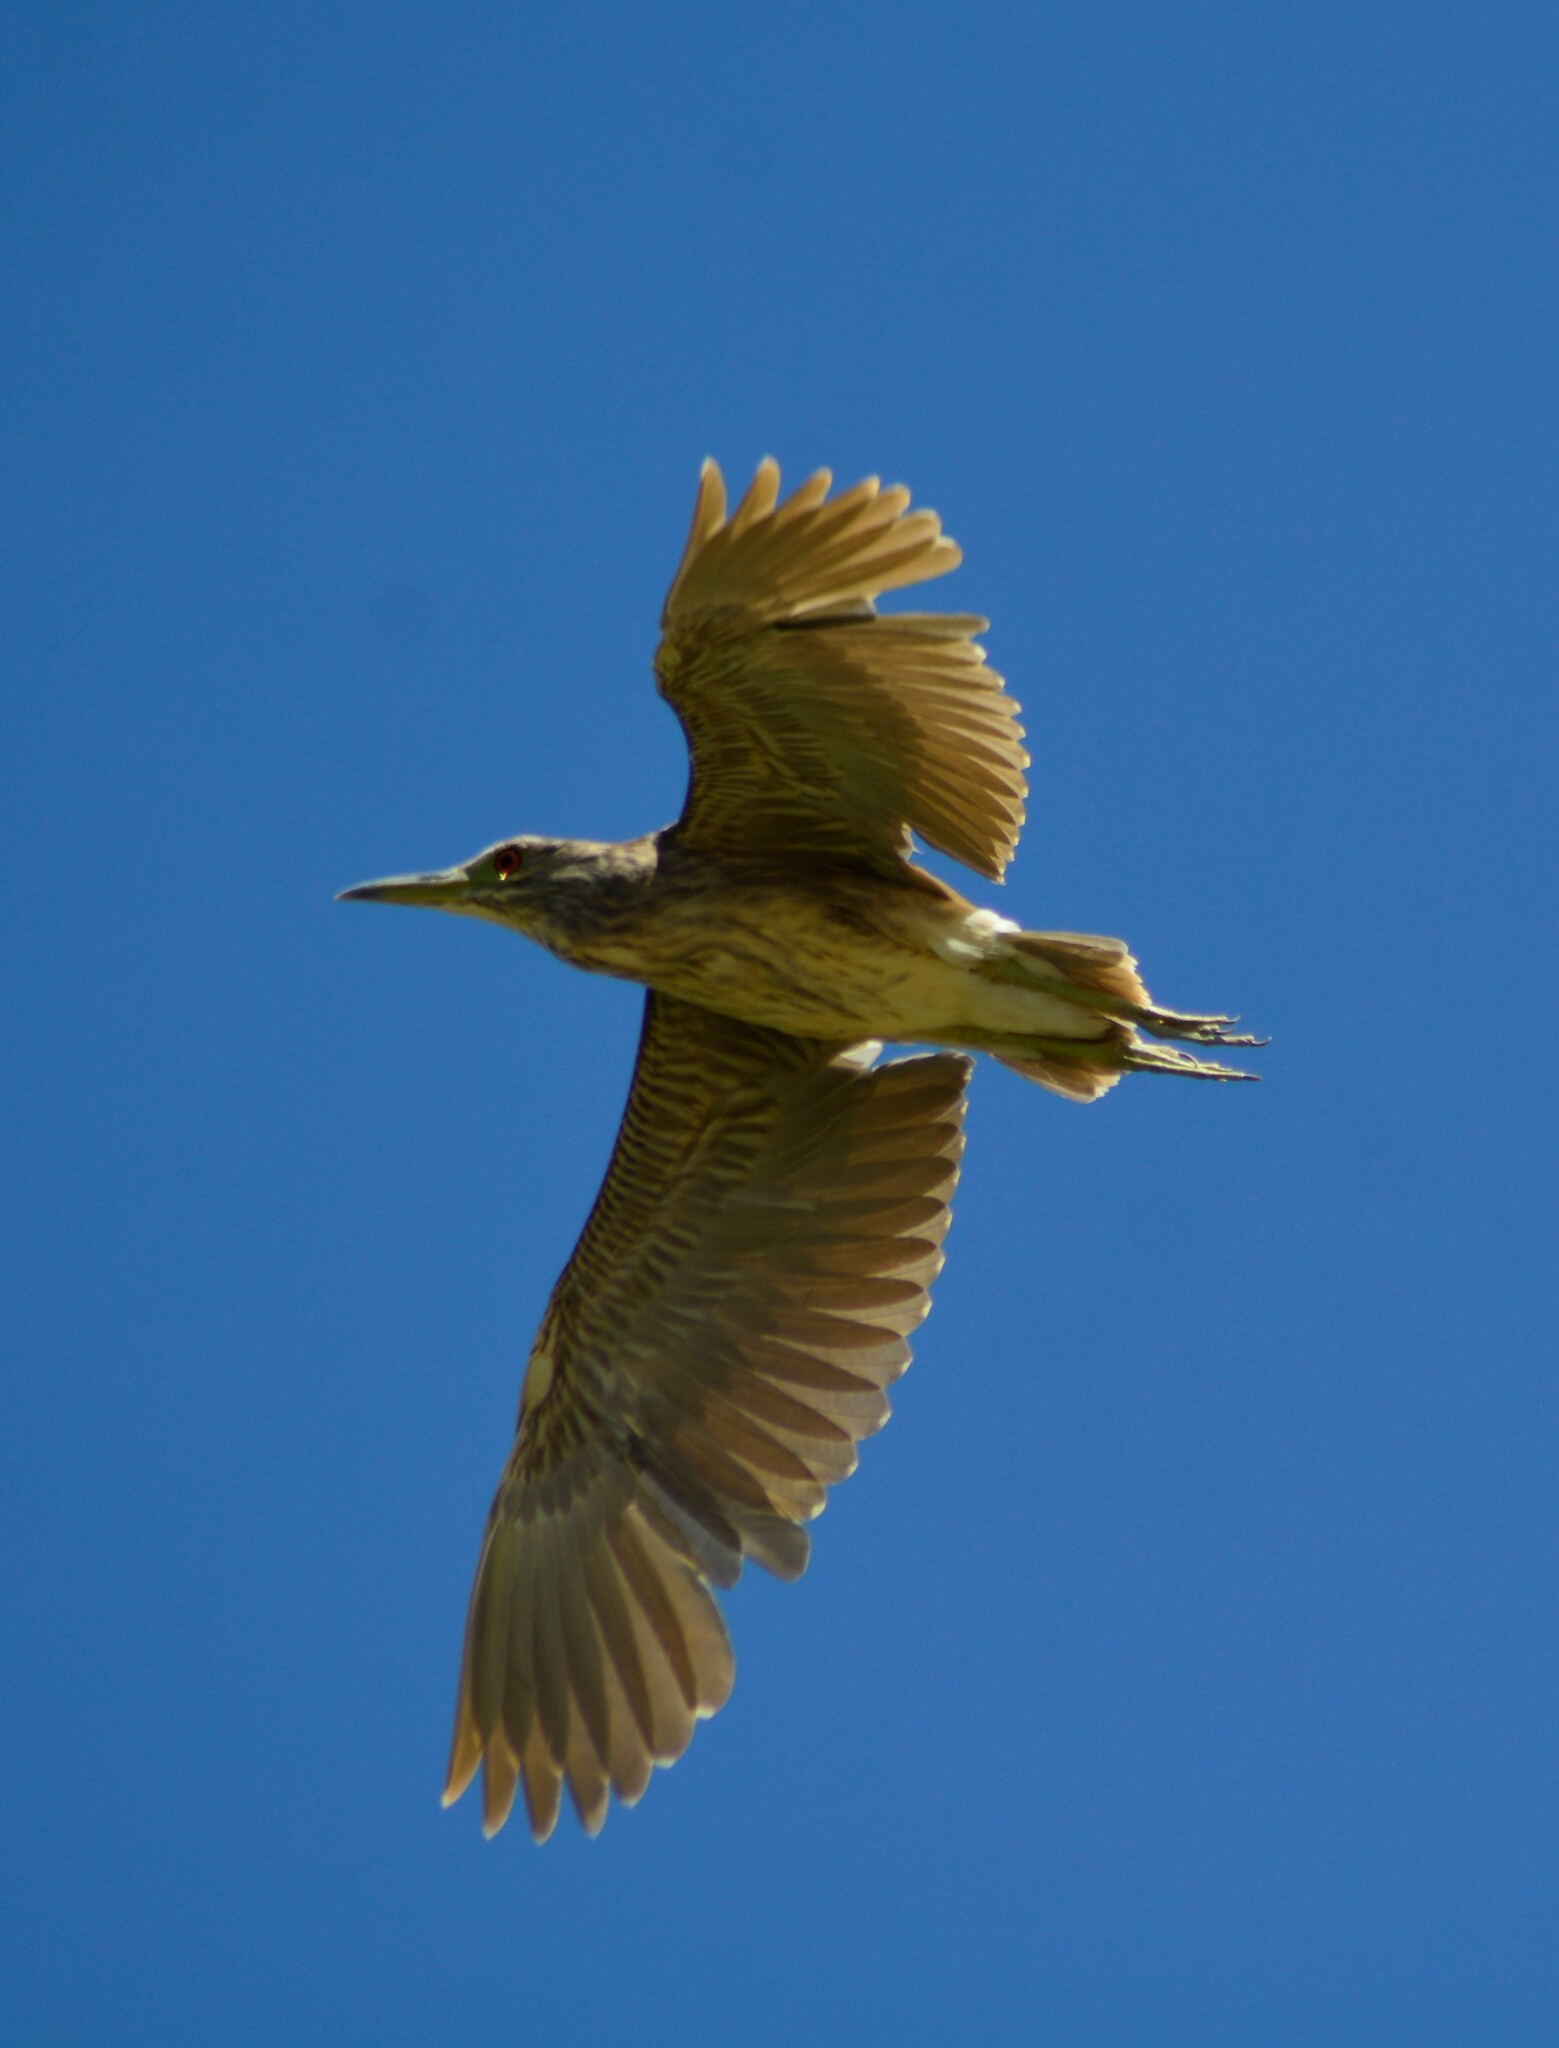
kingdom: Animalia
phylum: Chordata
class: Aves
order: Pelecaniformes
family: Ardeidae
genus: Nycticorax
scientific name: Nycticorax nycticorax
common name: Black-crowned night heron
